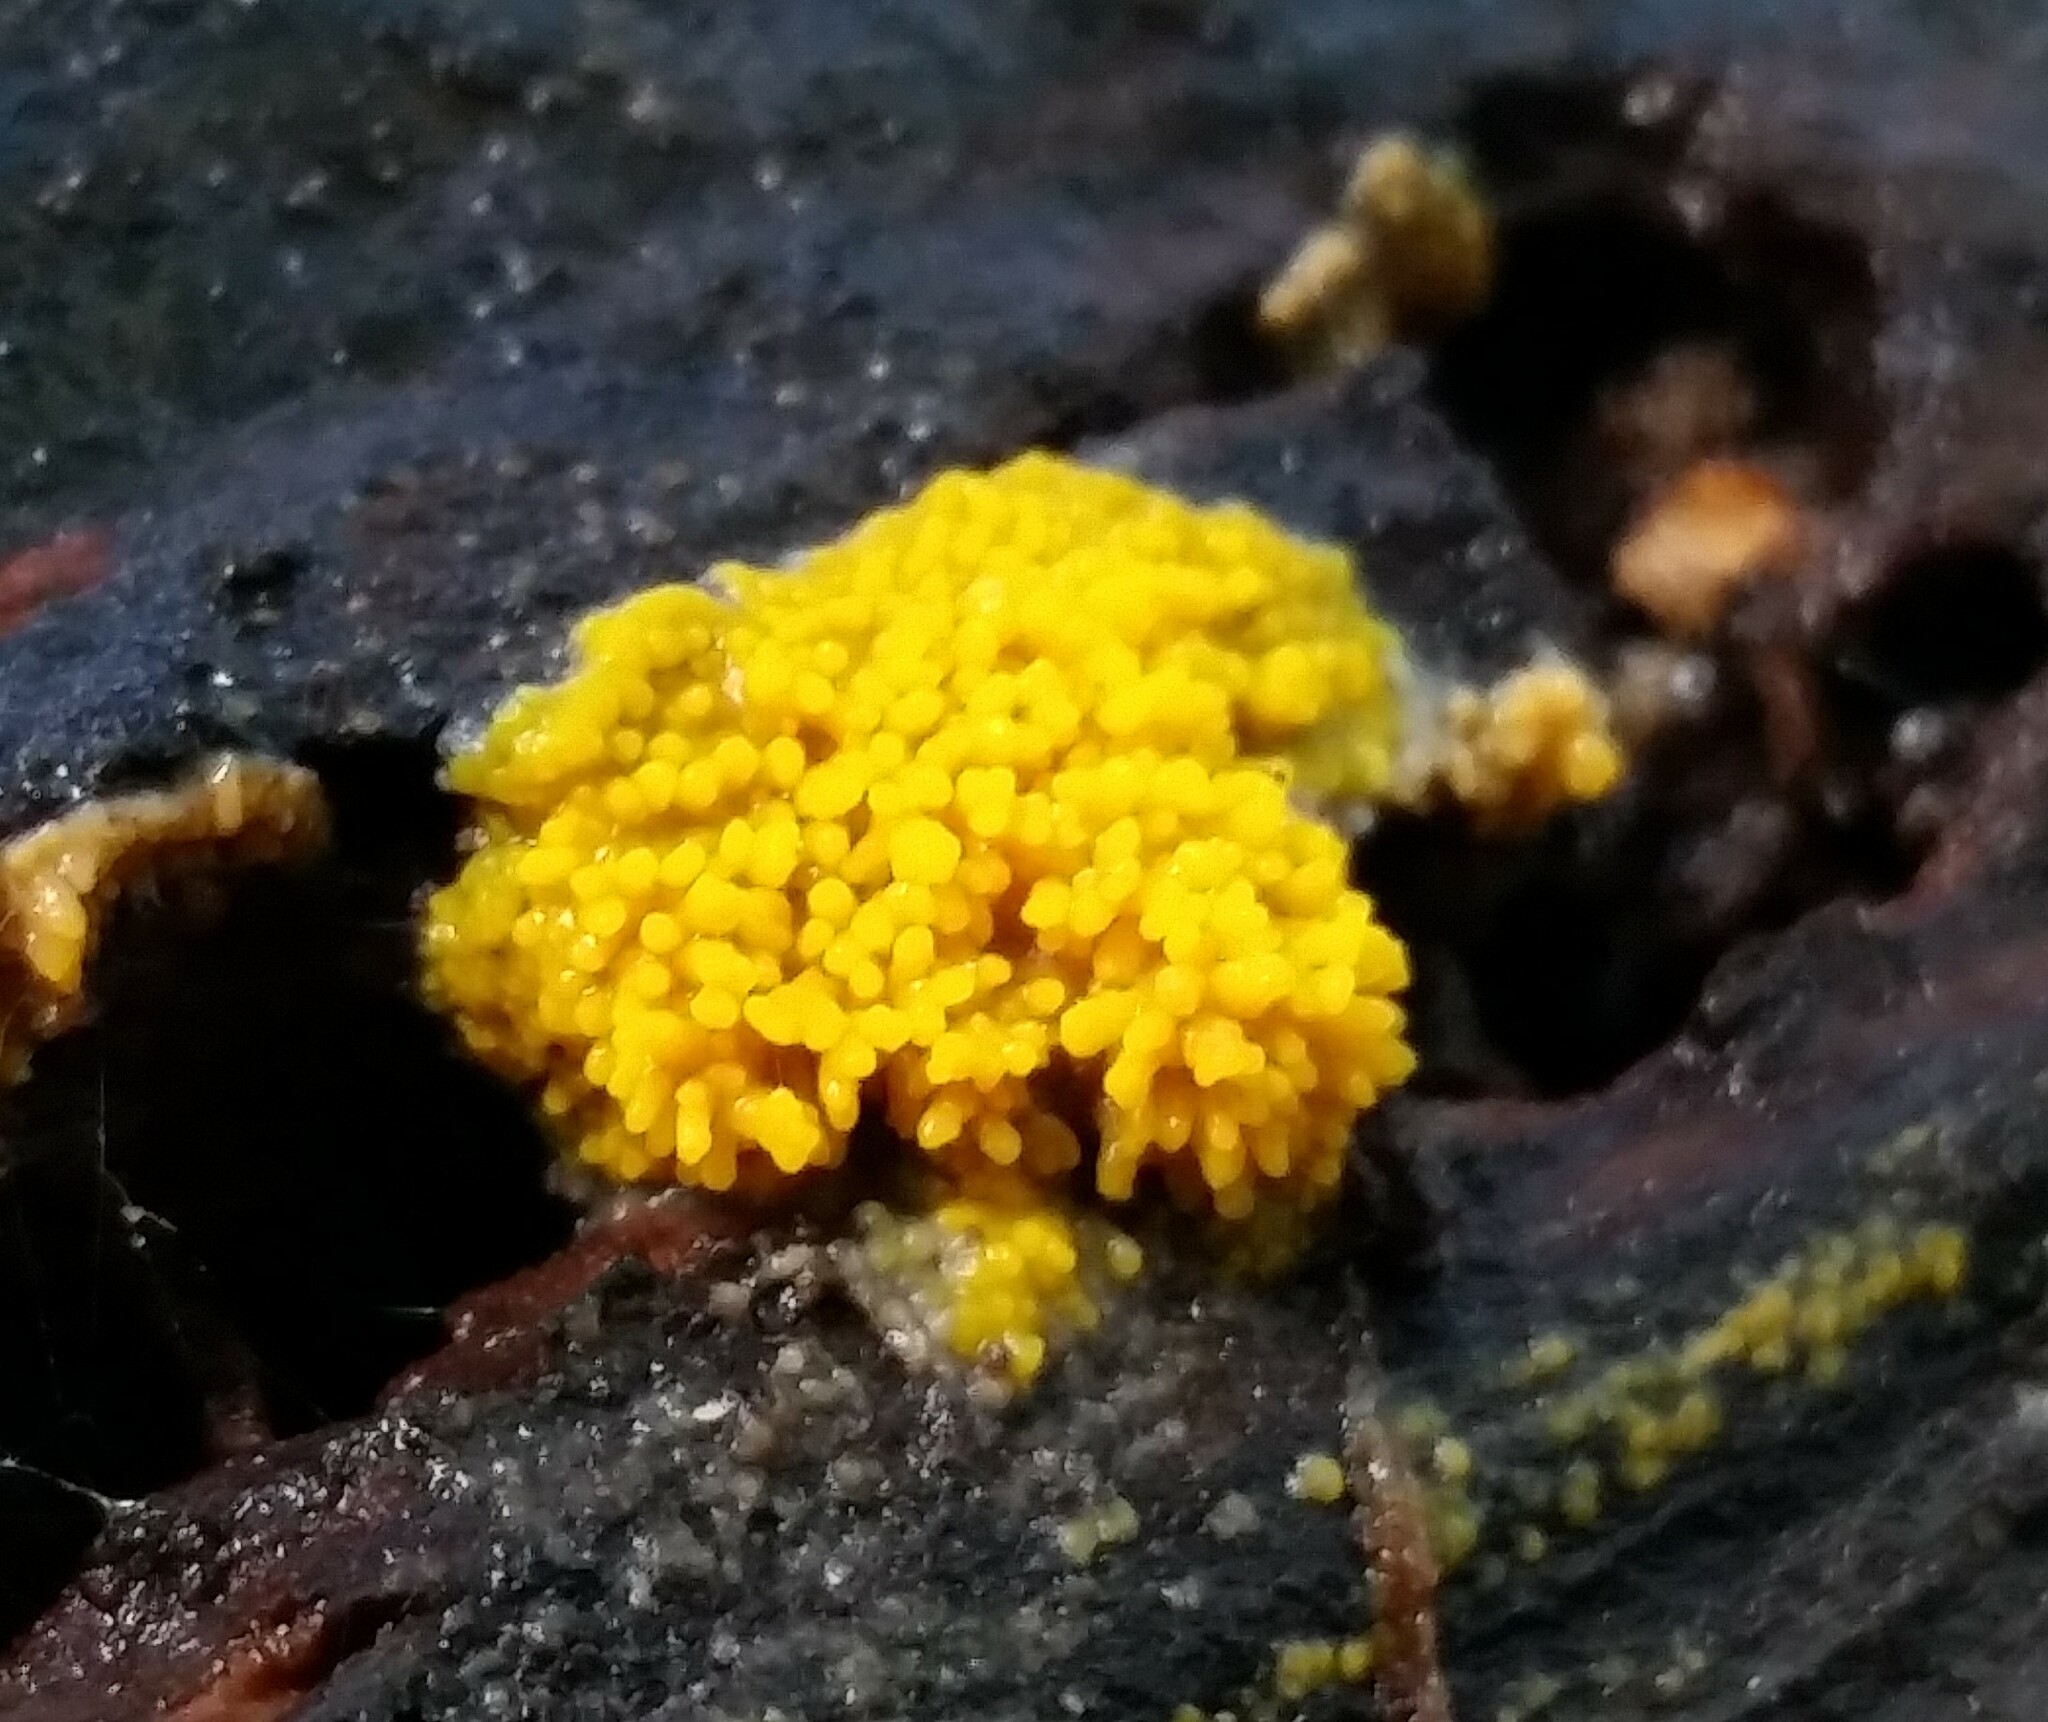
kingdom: Fungi
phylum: Basidiomycota
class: Agaricomycetes
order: Polyporales
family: Meruliaceae
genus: Phlebia
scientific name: Phlebia subceracea
